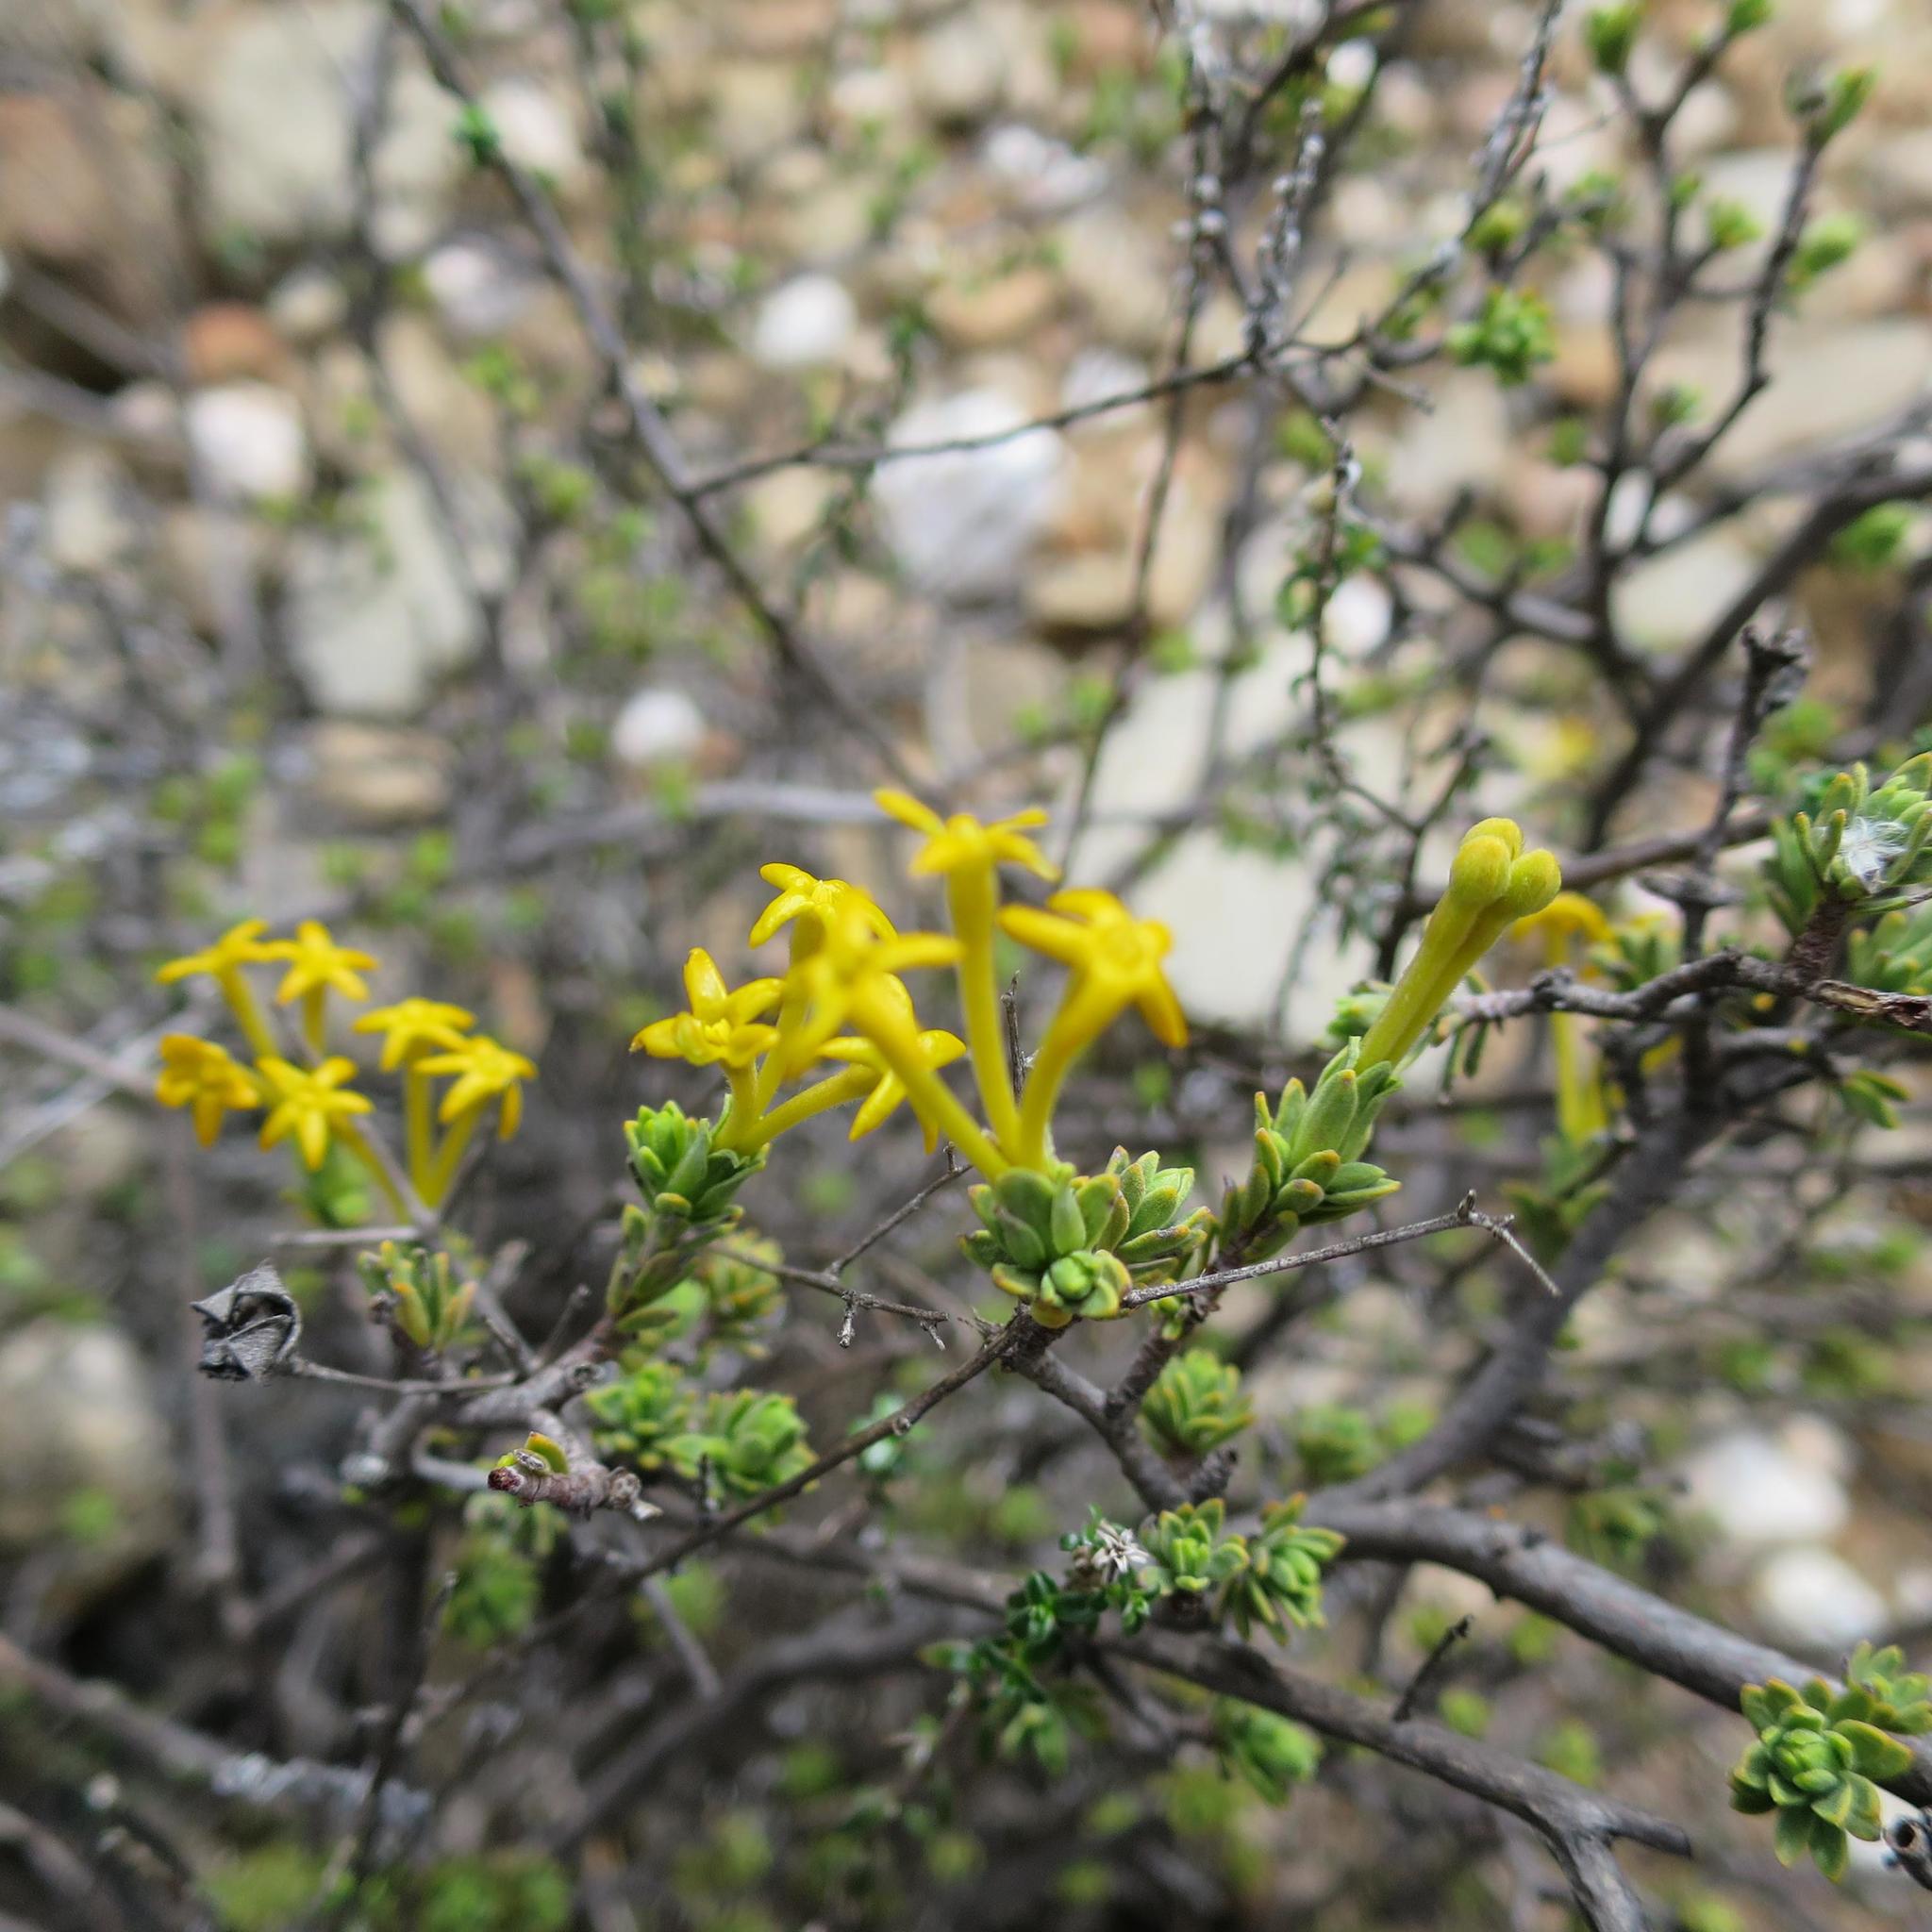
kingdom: Plantae
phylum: Tracheophyta
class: Magnoliopsida
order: Malvales
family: Thymelaeaceae
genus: Gnidia
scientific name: Gnidia deserticola
